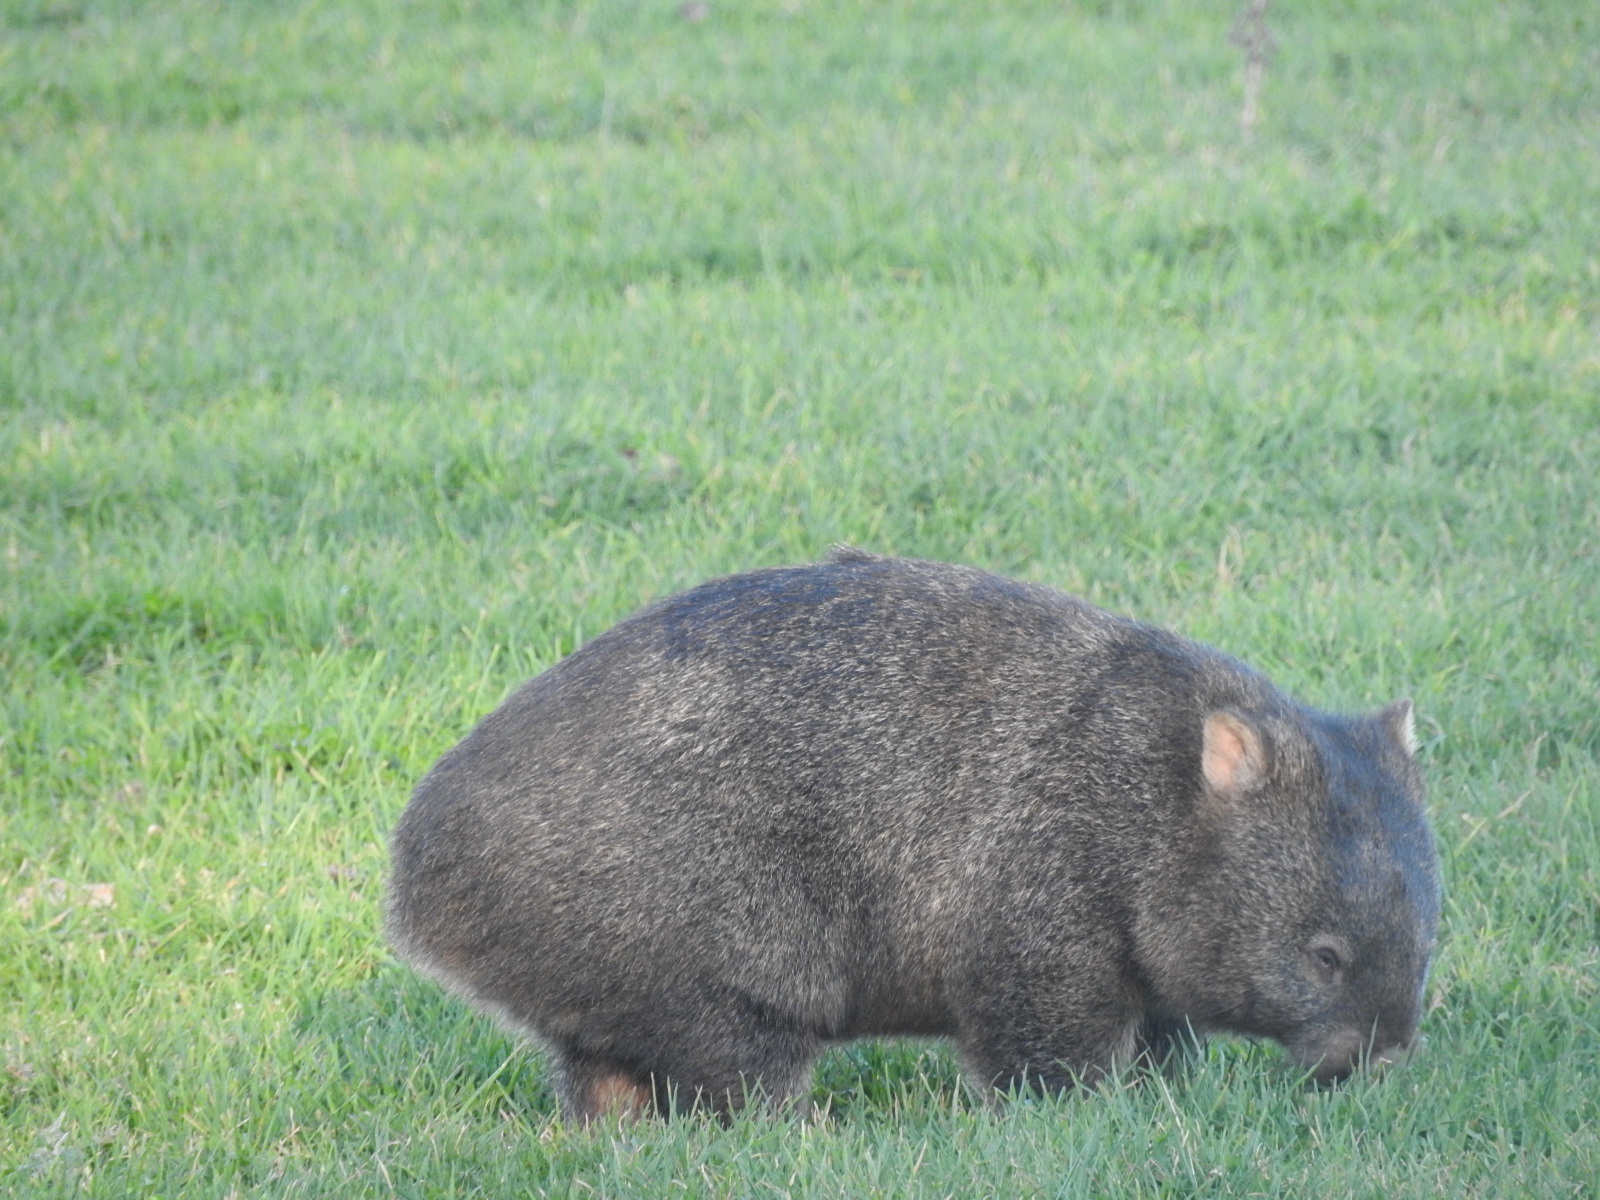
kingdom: Animalia
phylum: Chordata
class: Mammalia
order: Diprotodontia
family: Vombatidae
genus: Vombatus
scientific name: Vombatus ursinus
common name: Common wombat
